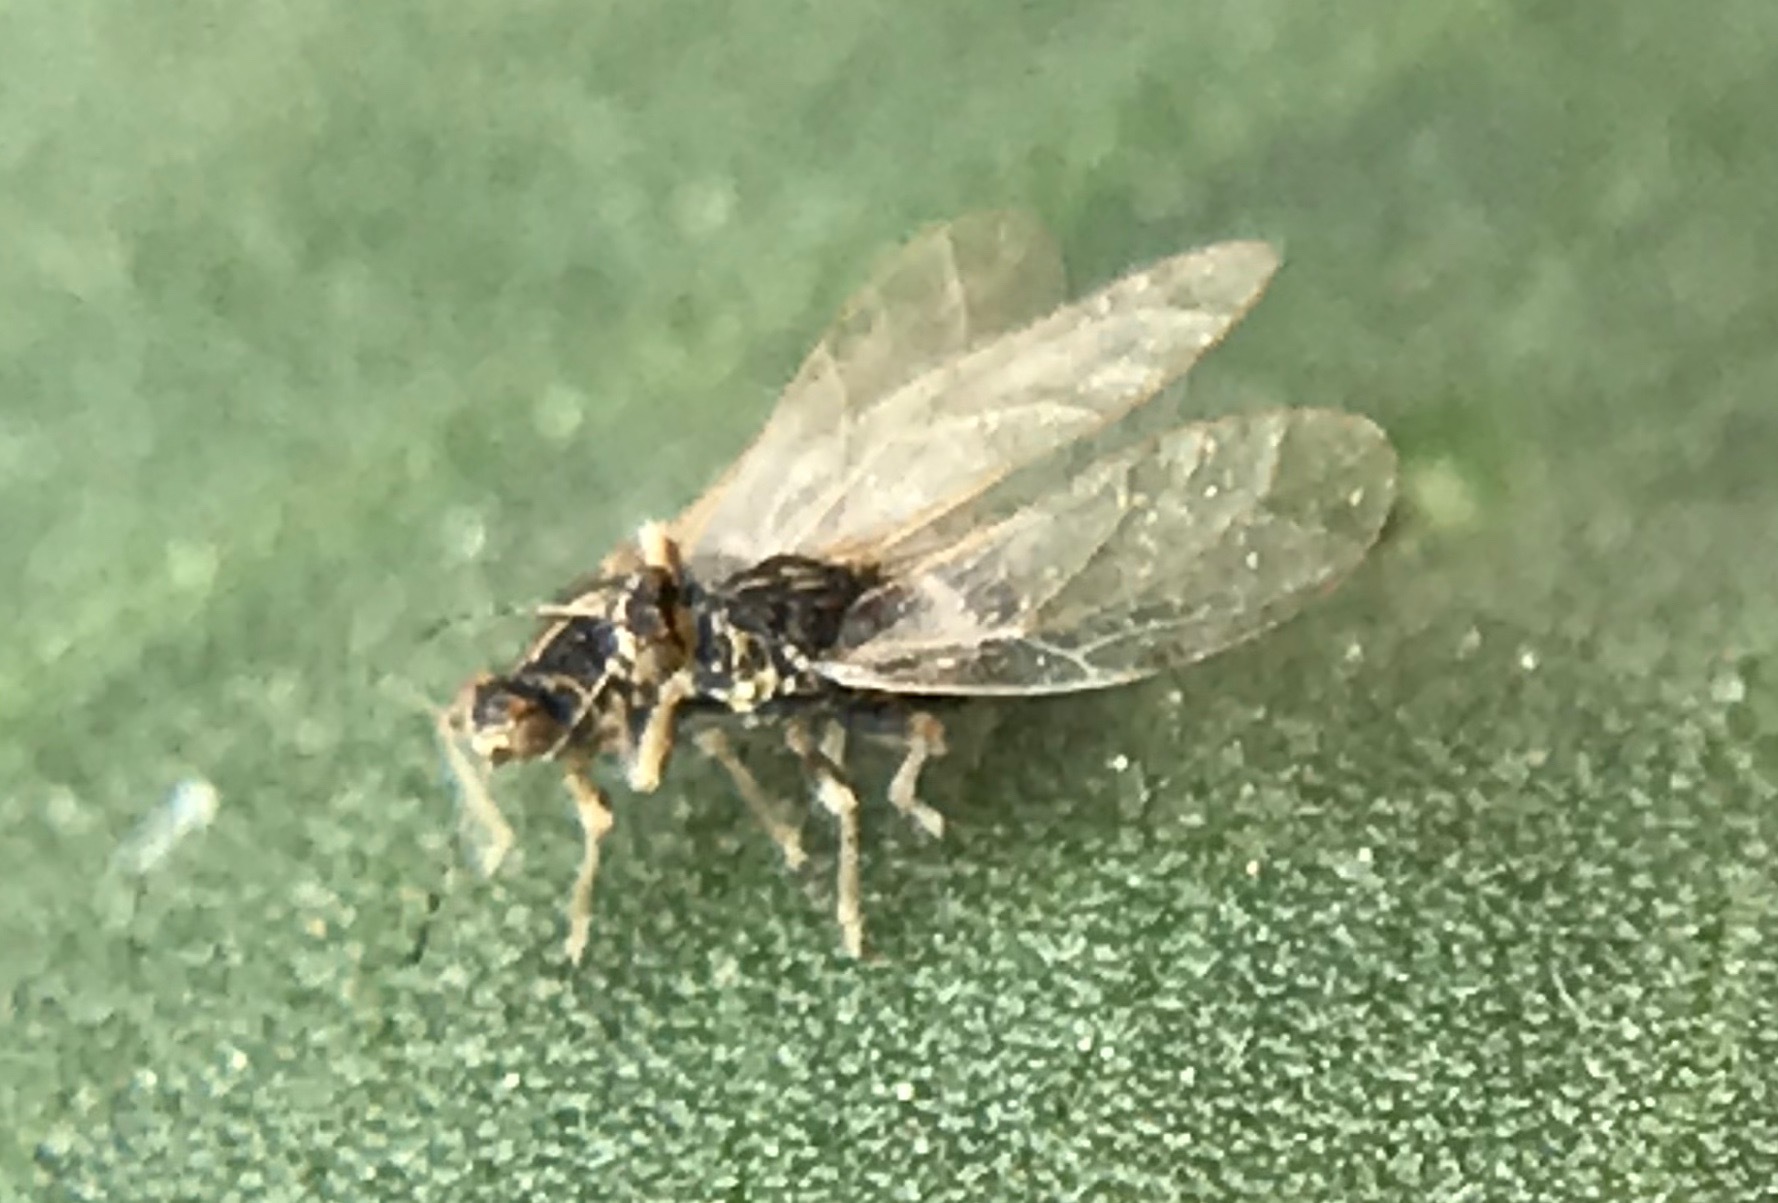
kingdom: Animalia
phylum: Arthropoda
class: Insecta
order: Hemiptera
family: Triozidae
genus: Bactericera
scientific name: Bactericera lavaterae
